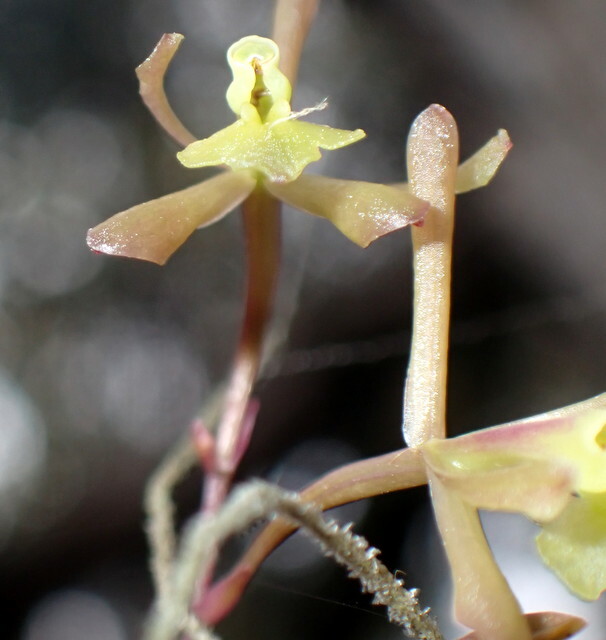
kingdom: Plantae
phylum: Tracheophyta
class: Liliopsida
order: Asparagales
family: Orchidaceae
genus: Epidendrum
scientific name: Epidendrum conopseum
